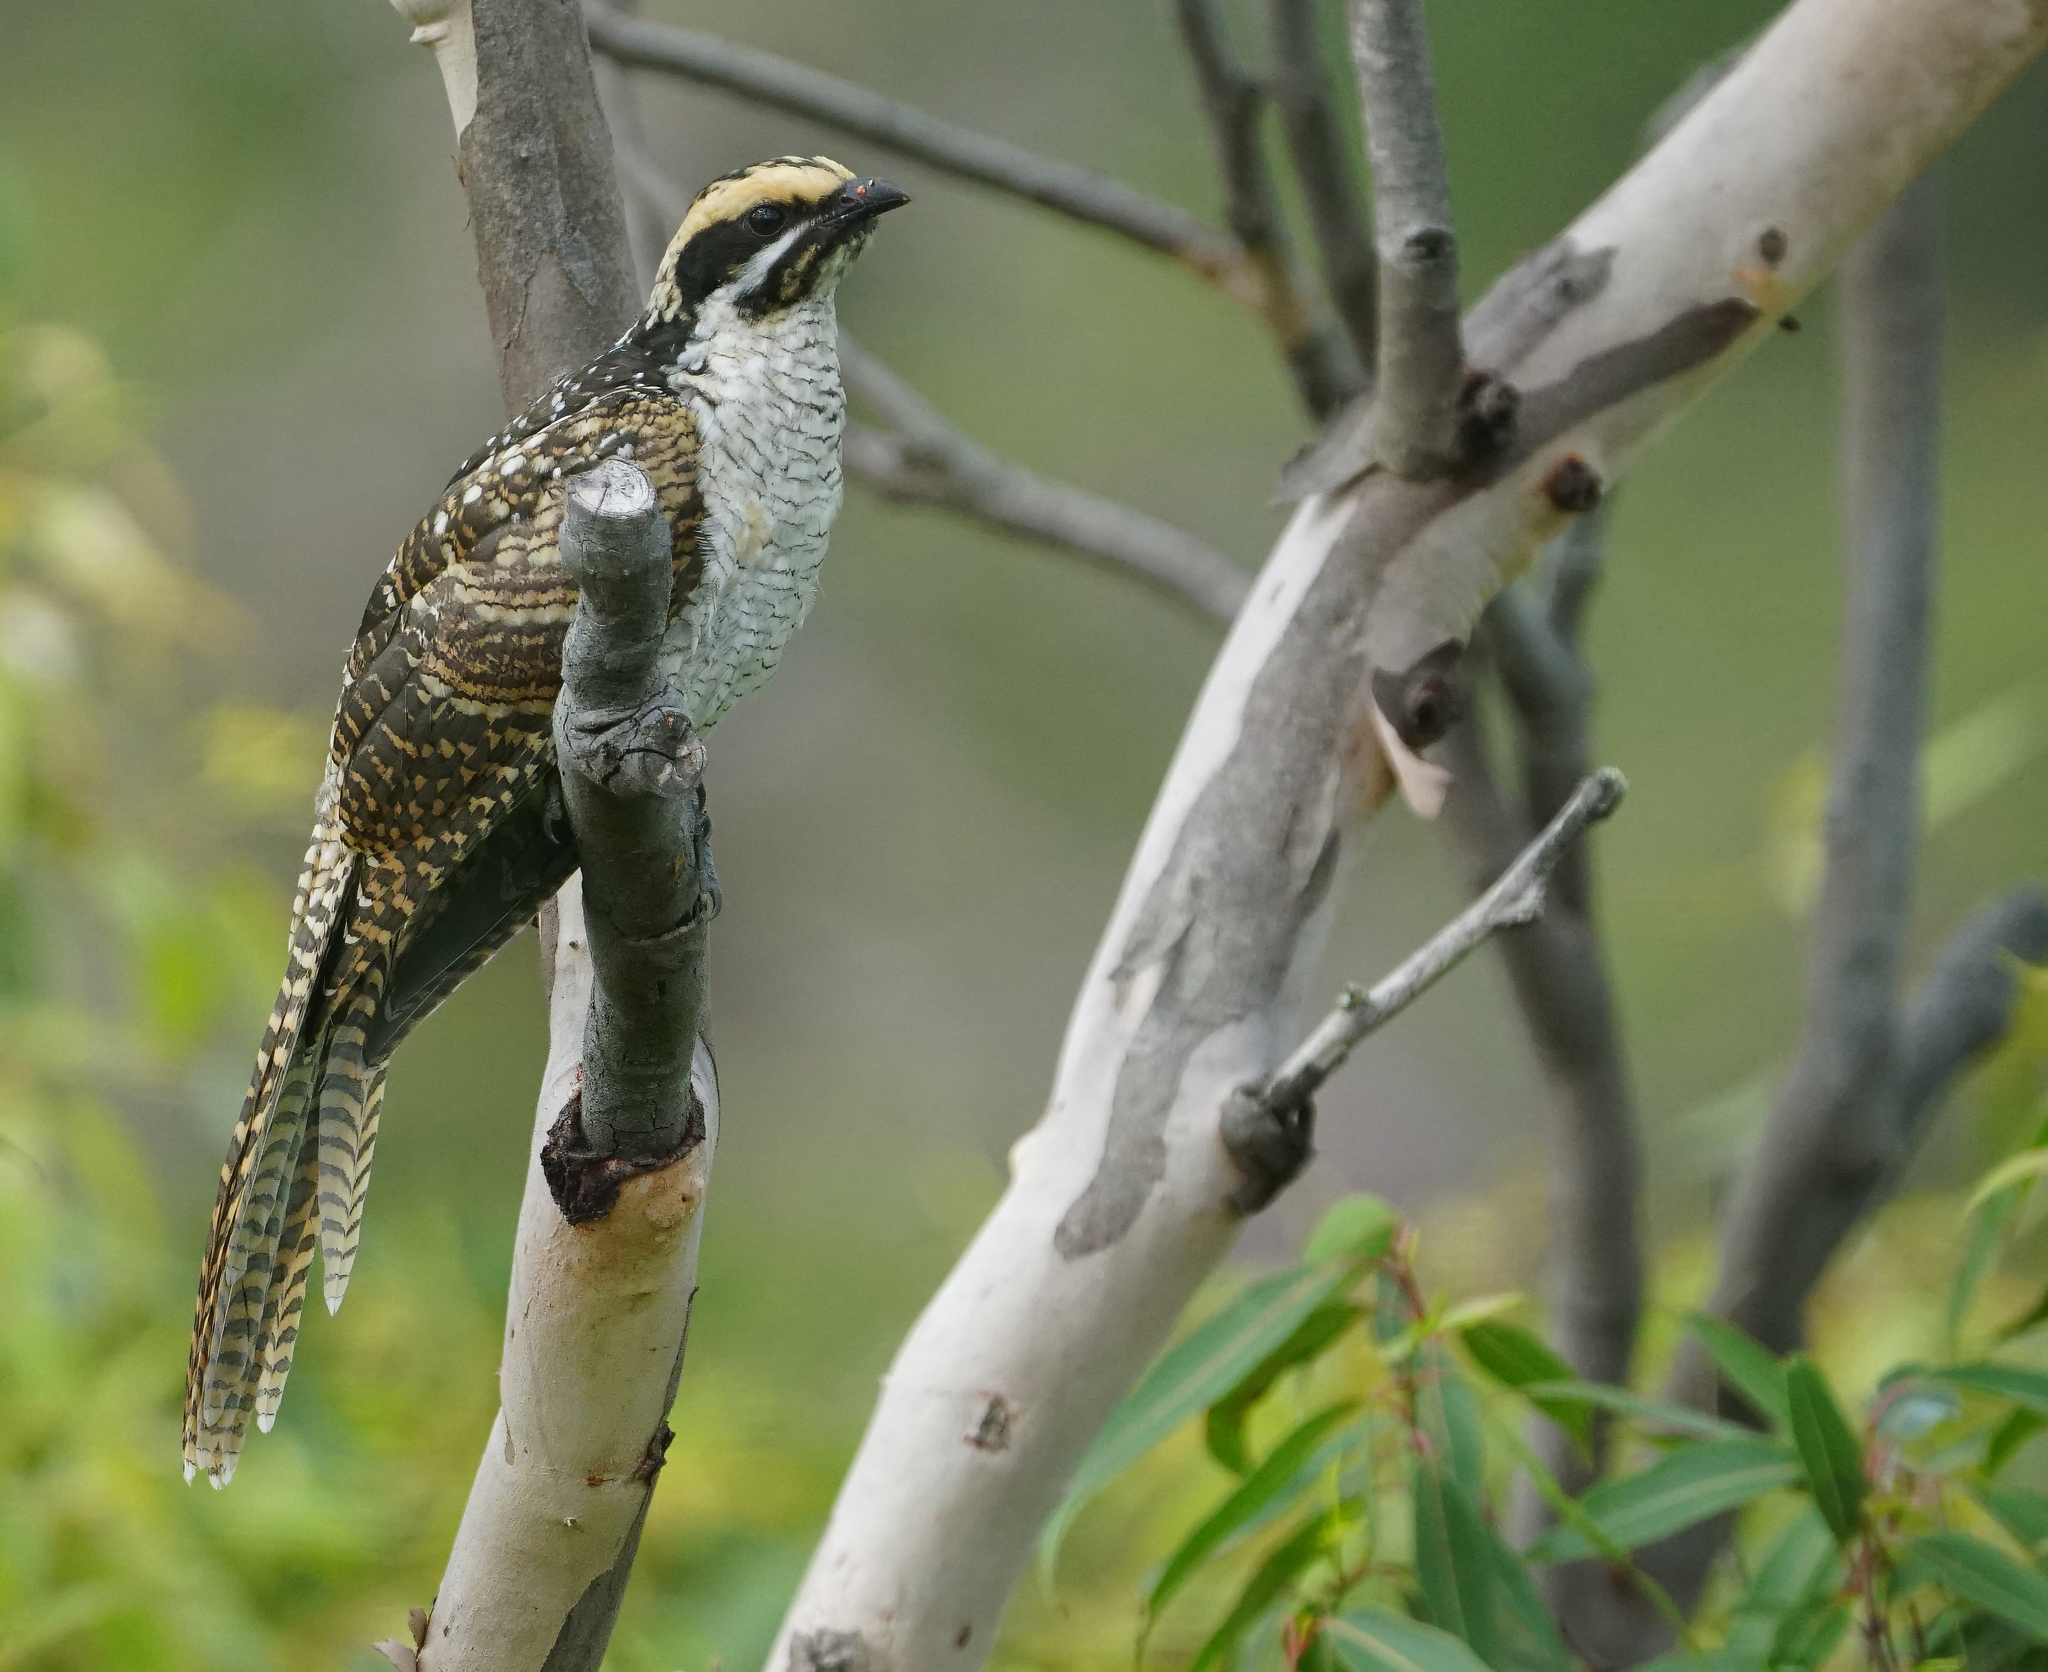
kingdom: Animalia
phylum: Chordata
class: Aves
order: Cuculiformes
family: Cuculidae
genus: Eudynamys
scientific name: Eudynamys orientalis
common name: Pacific koel
